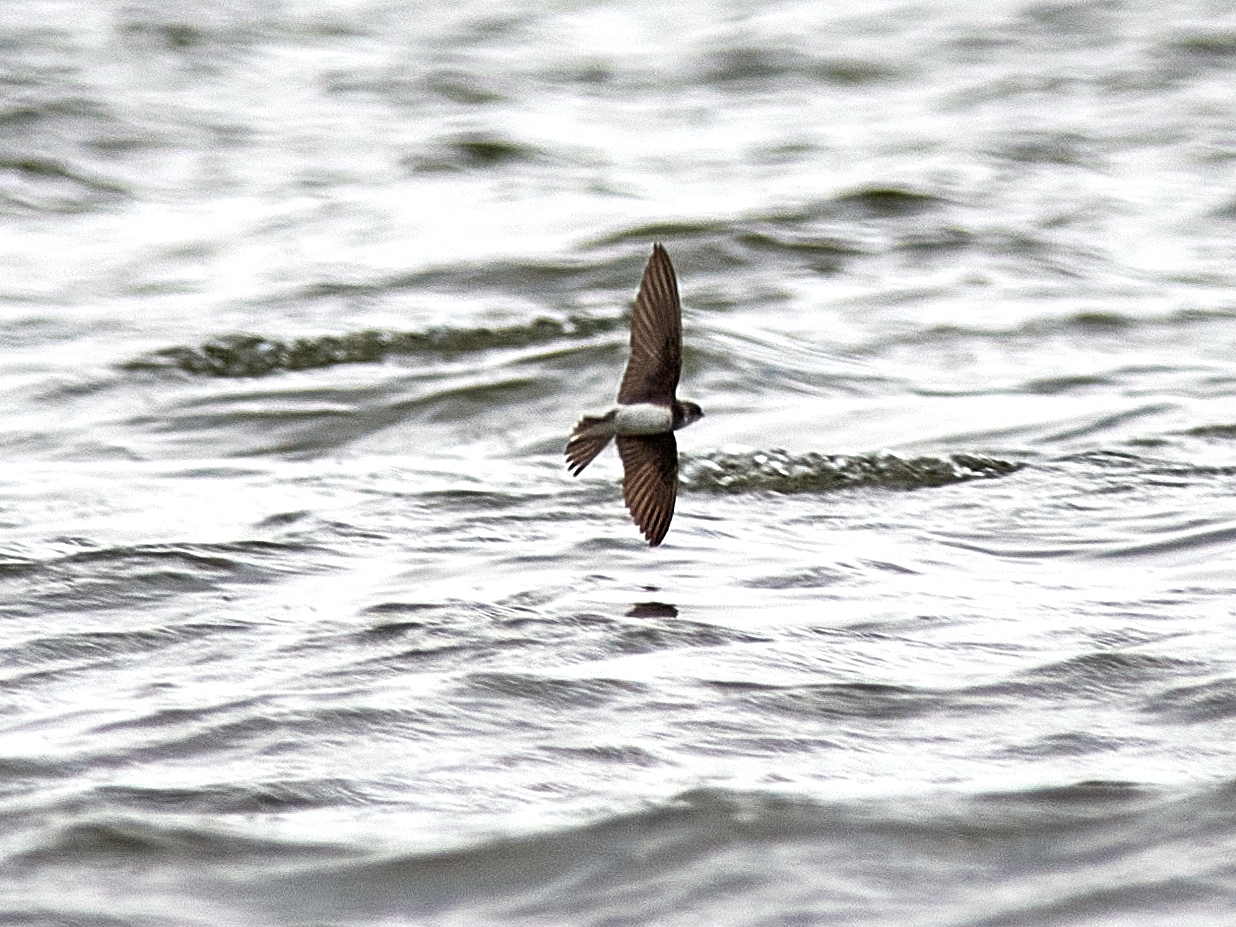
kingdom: Animalia
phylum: Chordata
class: Aves
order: Passeriformes
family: Hirundinidae
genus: Riparia
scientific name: Riparia riparia
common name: Sand martin
